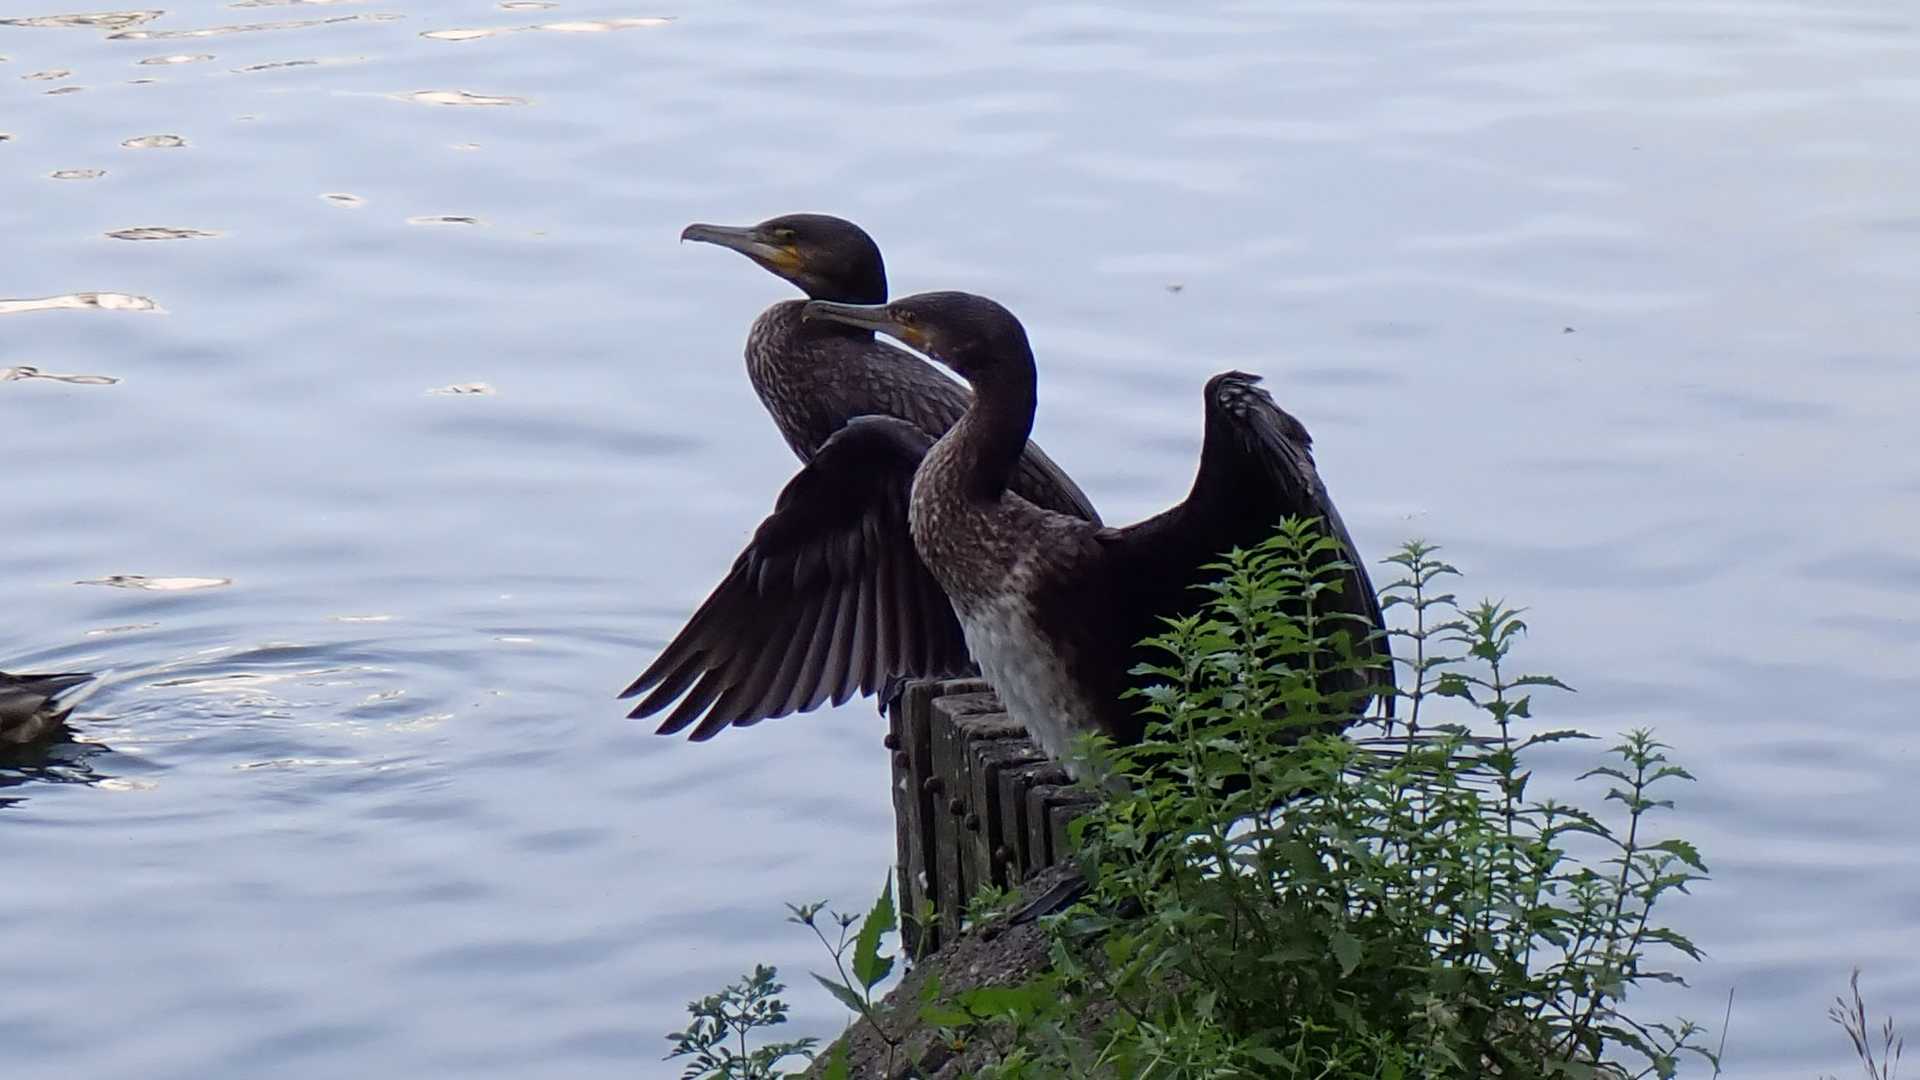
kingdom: Animalia
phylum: Chordata
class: Aves
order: Suliformes
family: Phalacrocoracidae
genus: Phalacrocorax
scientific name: Phalacrocorax carbo
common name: Great cormorant
